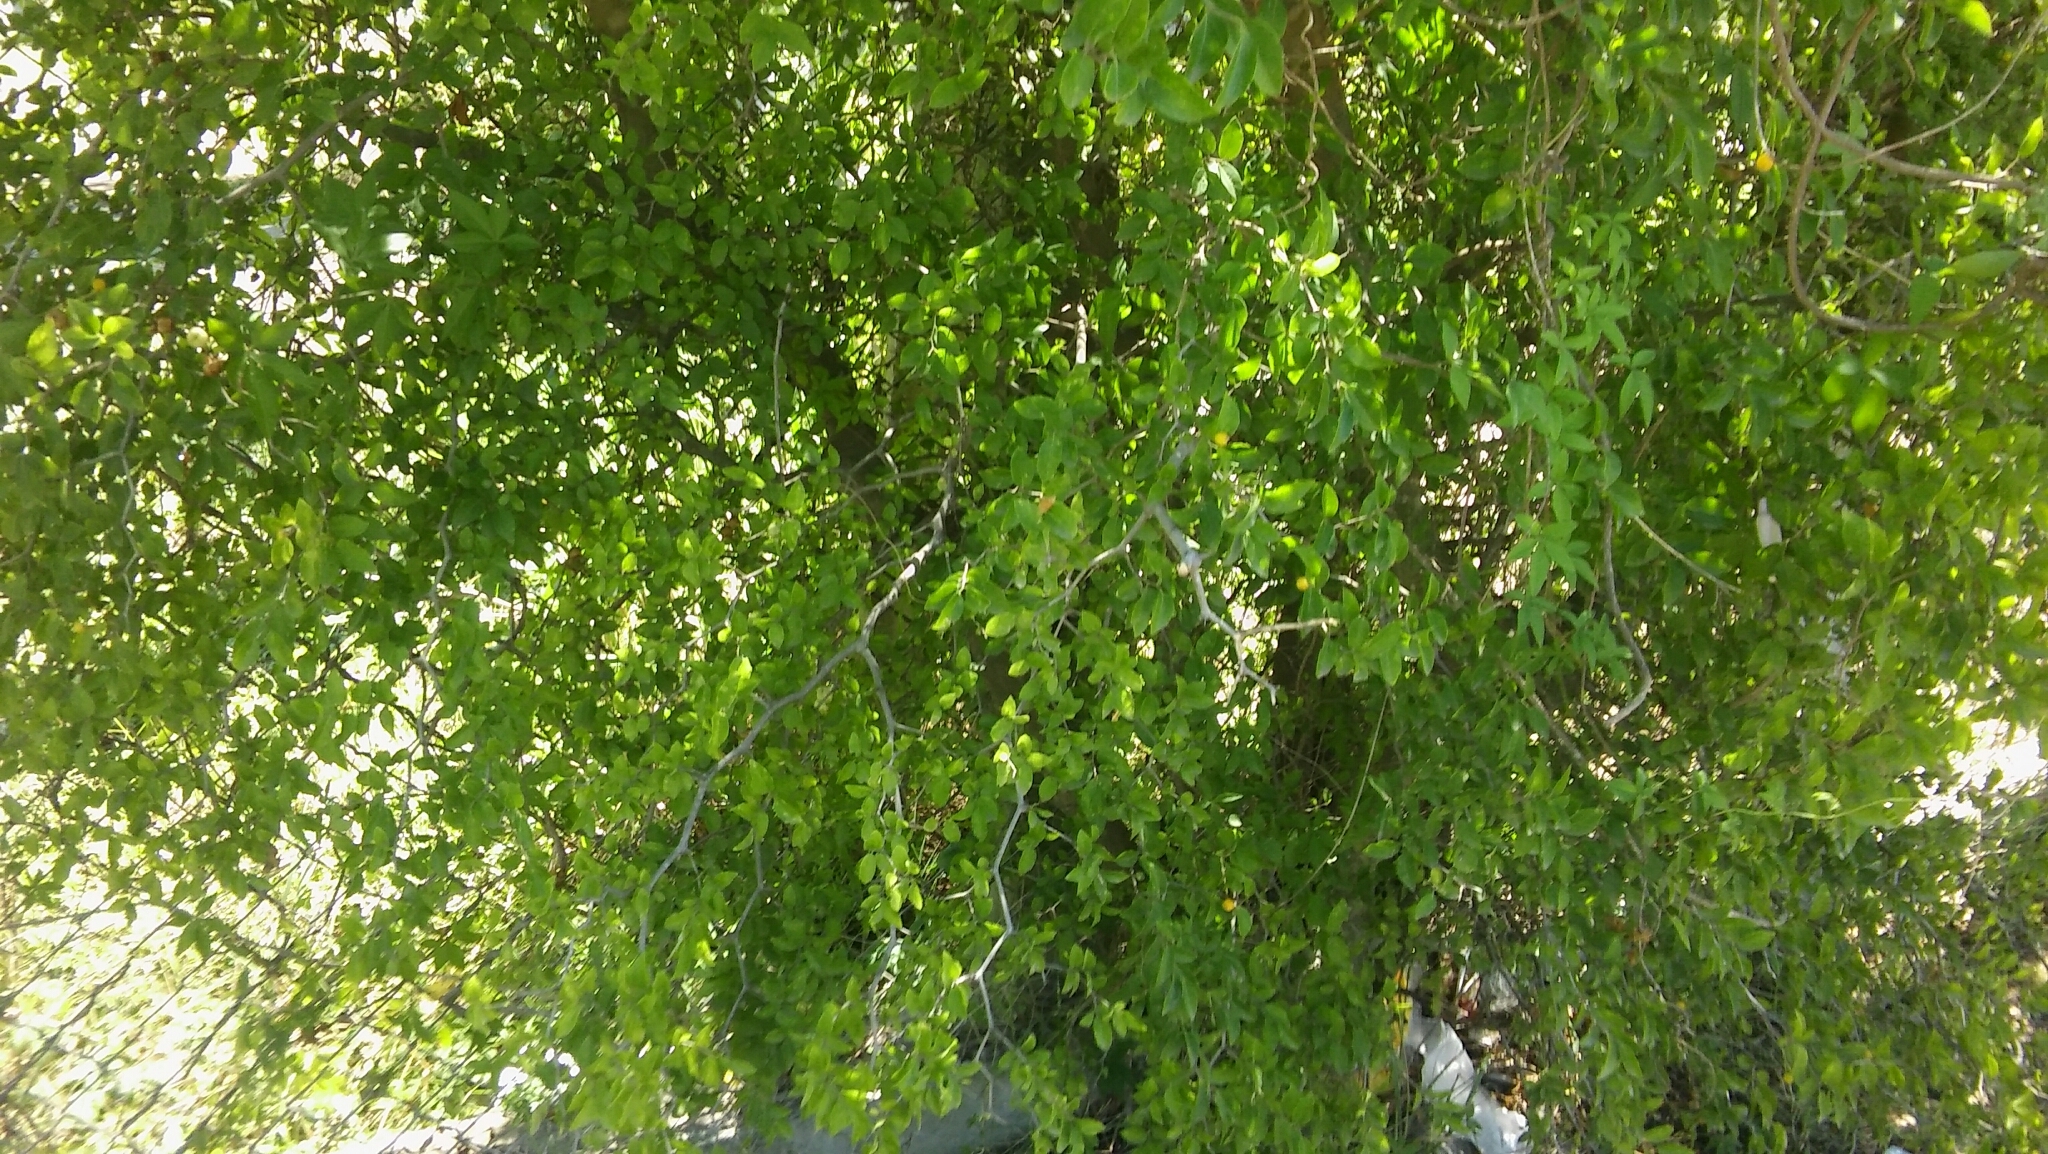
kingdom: Plantae
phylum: Tracheophyta
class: Magnoliopsida
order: Rosales
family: Cannabaceae
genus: Celtis
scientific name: Celtis tala
